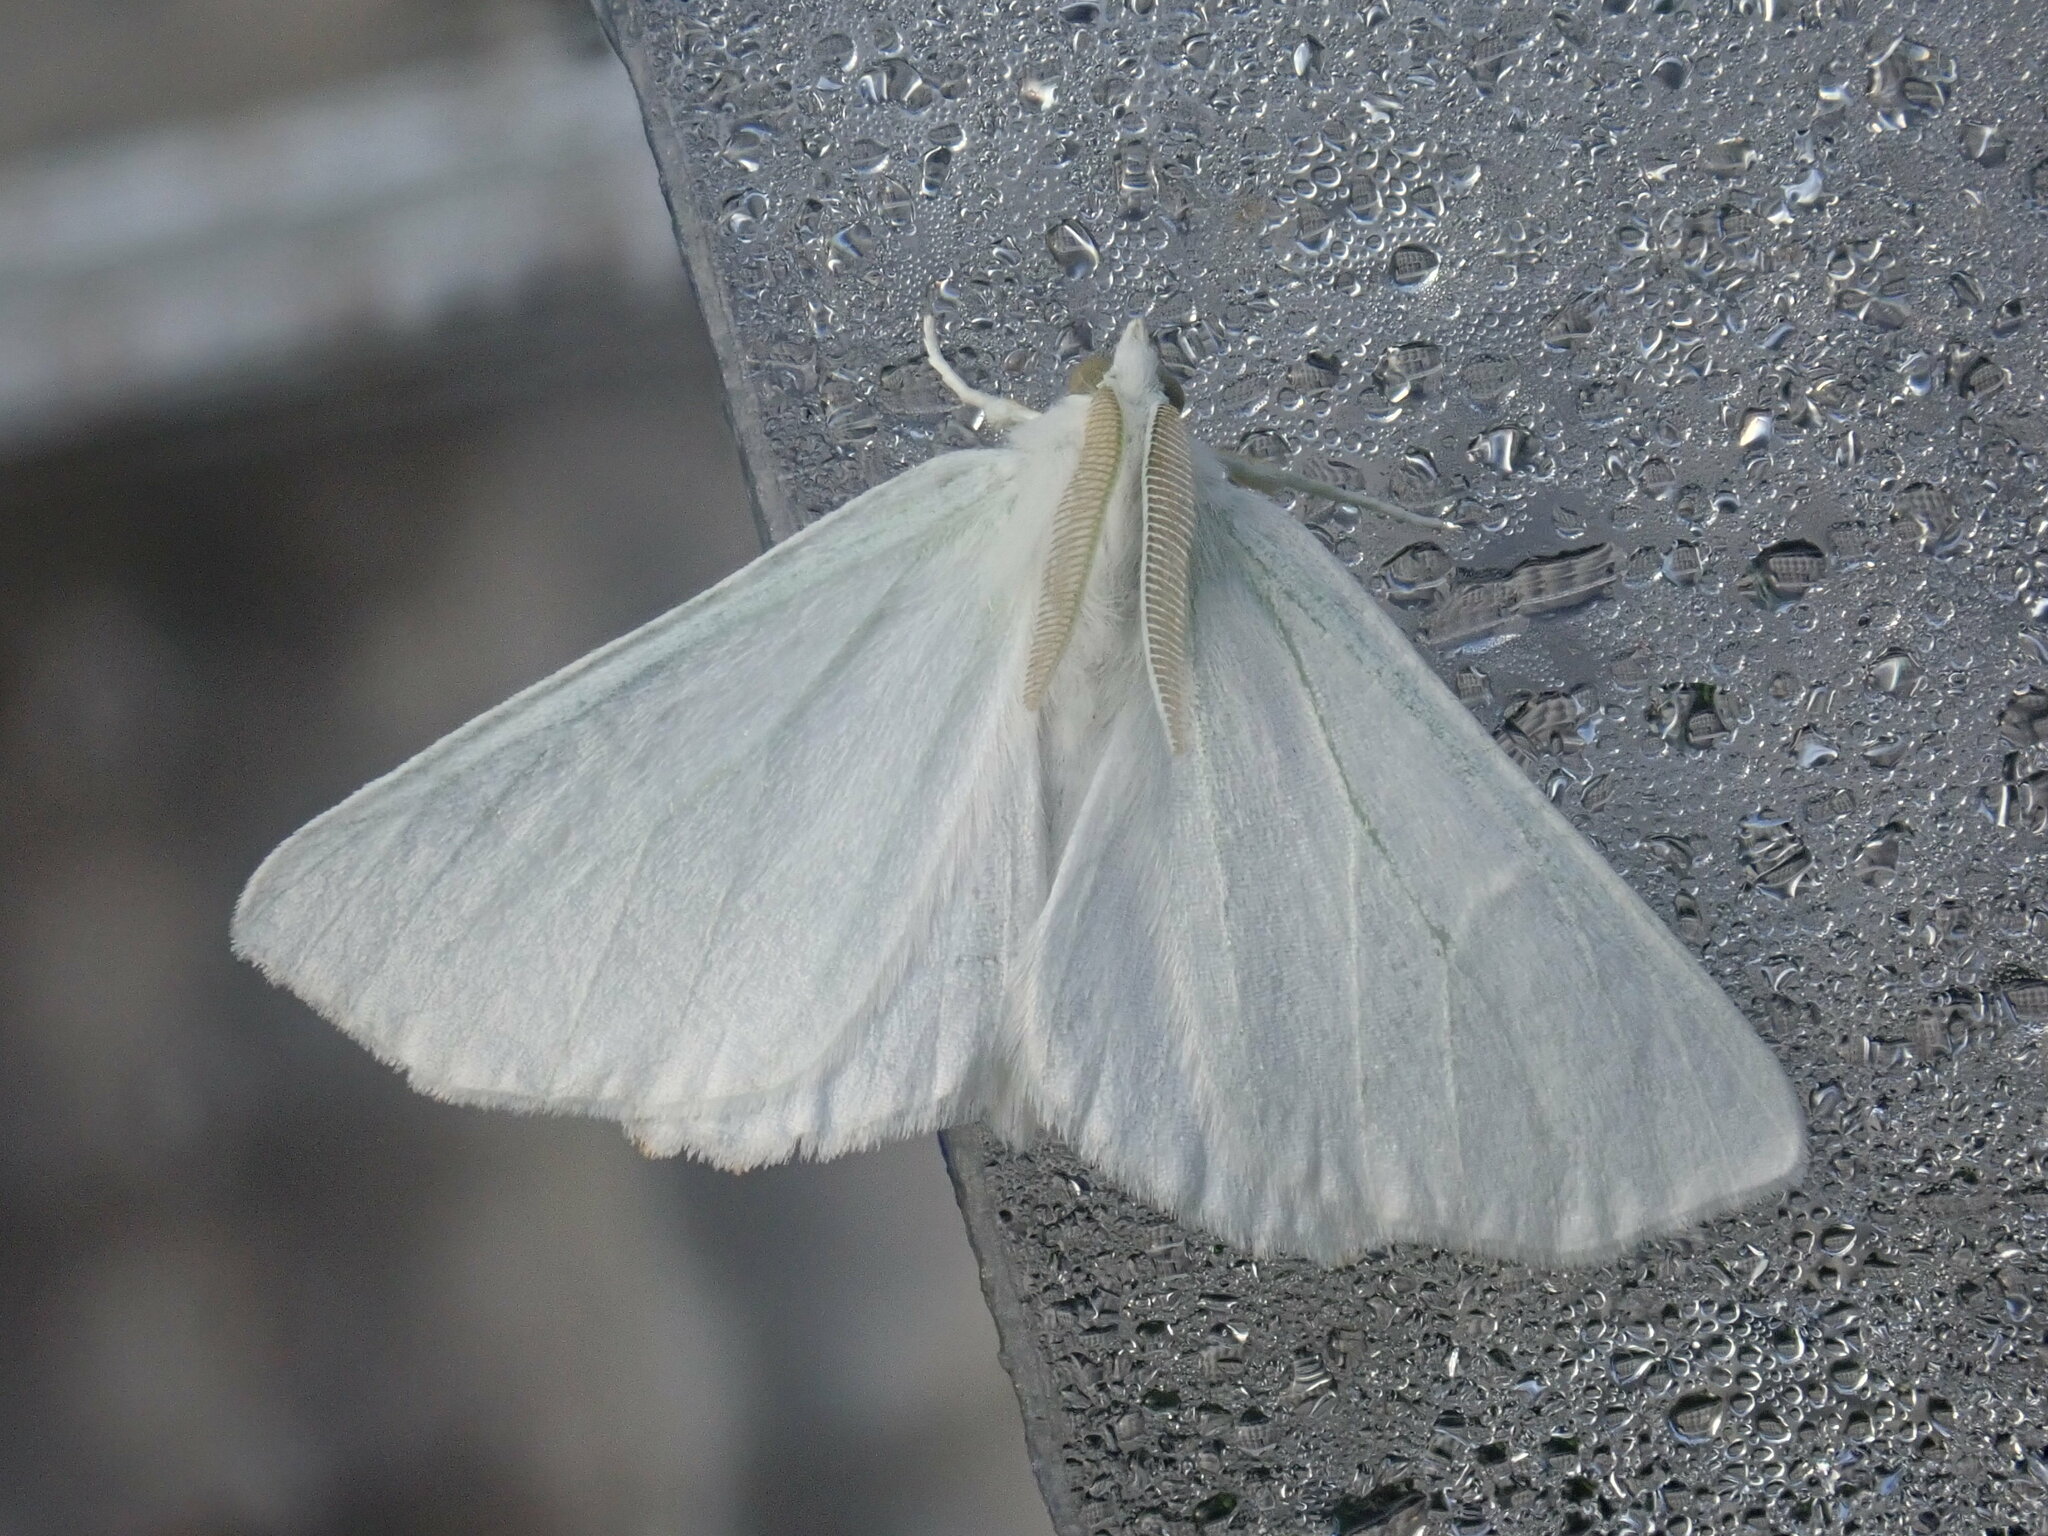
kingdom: Animalia
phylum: Arthropoda
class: Insecta
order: Lepidoptera
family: Geometridae
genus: Ennomos
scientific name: Ennomos subsignaria
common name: Elm spanworm
